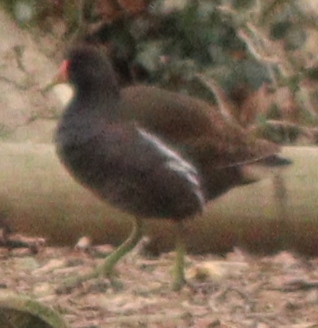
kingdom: Animalia
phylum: Chordata
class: Aves
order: Gruiformes
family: Rallidae
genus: Gallinula
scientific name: Gallinula chloropus
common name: Common moorhen
